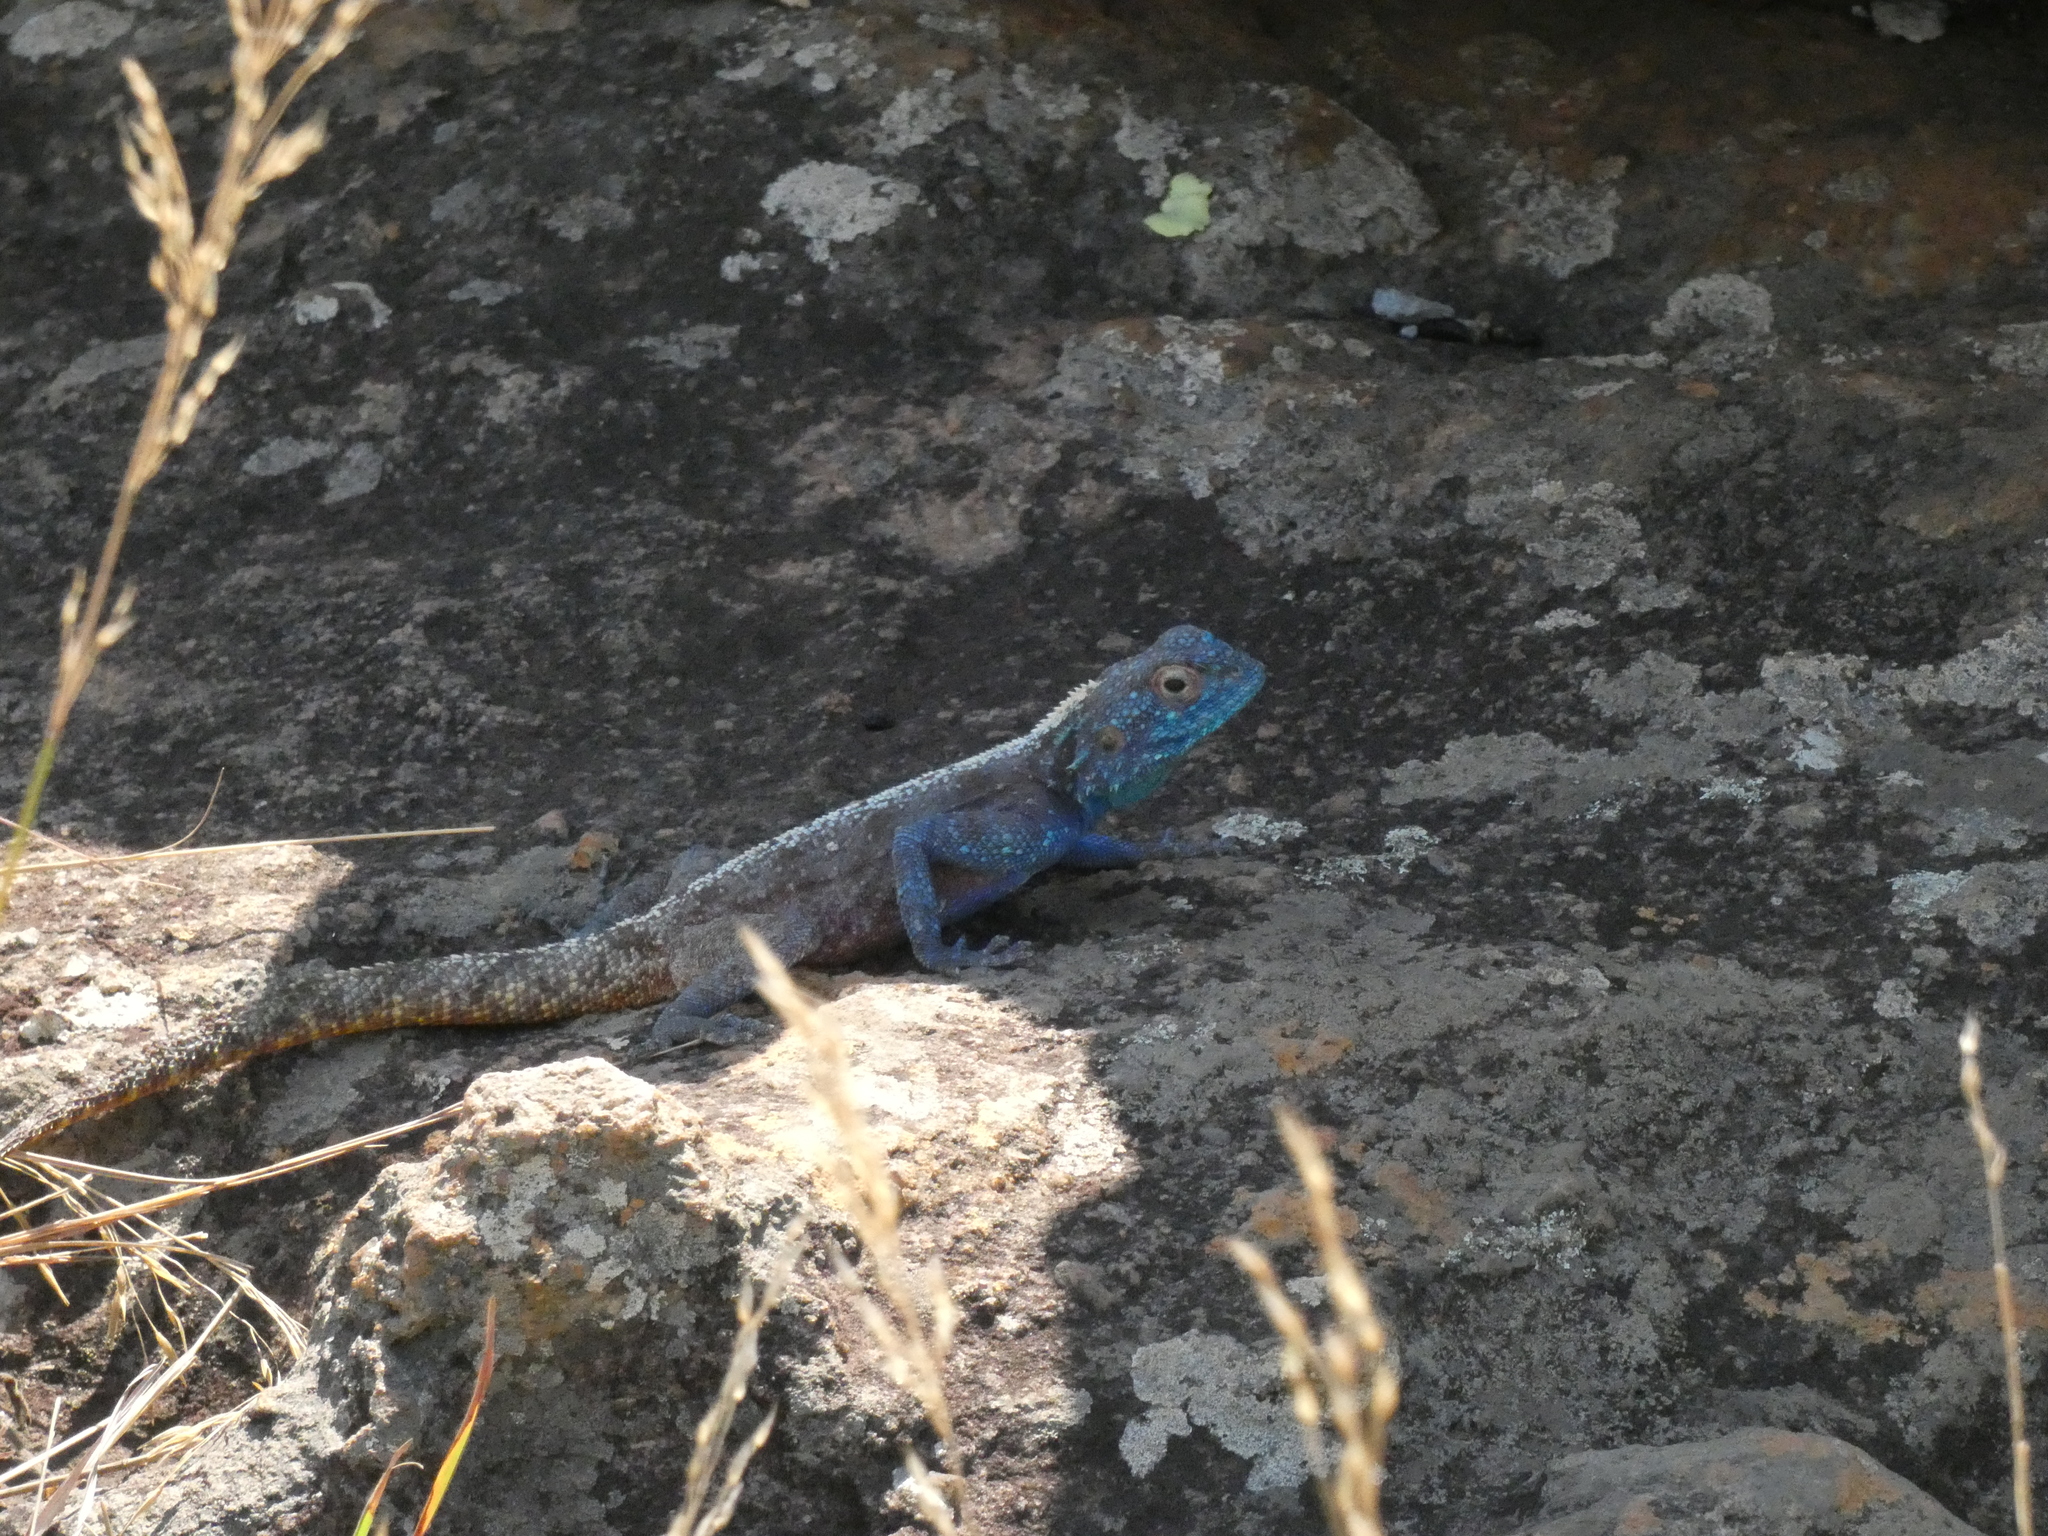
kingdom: Animalia
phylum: Chordata
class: Squamata
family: Agamidae
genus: Agama
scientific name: Agama atra
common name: Southern african rock agama
